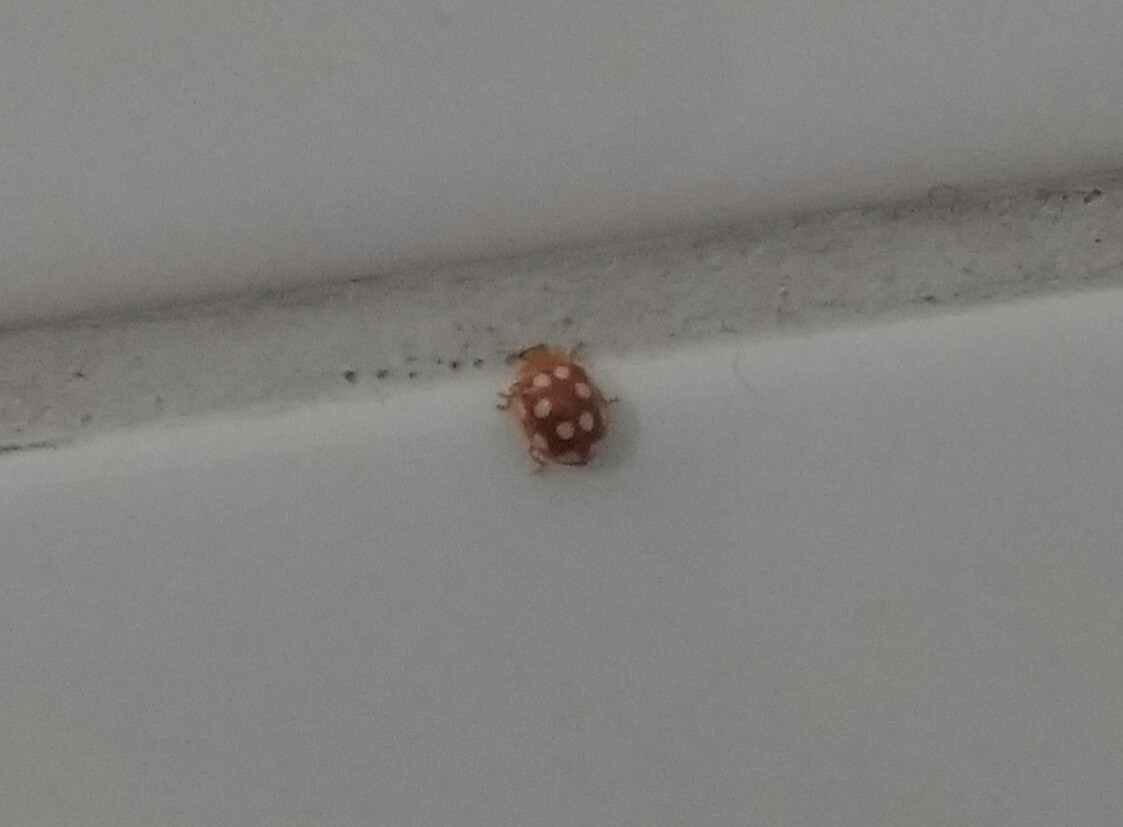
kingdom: Animalia
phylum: Arthropoda
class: Insecta
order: Coleoptera
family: Coccinellidae
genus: Vibidia
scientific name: Vibidia duodecimguttata
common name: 12-spot ladybird
